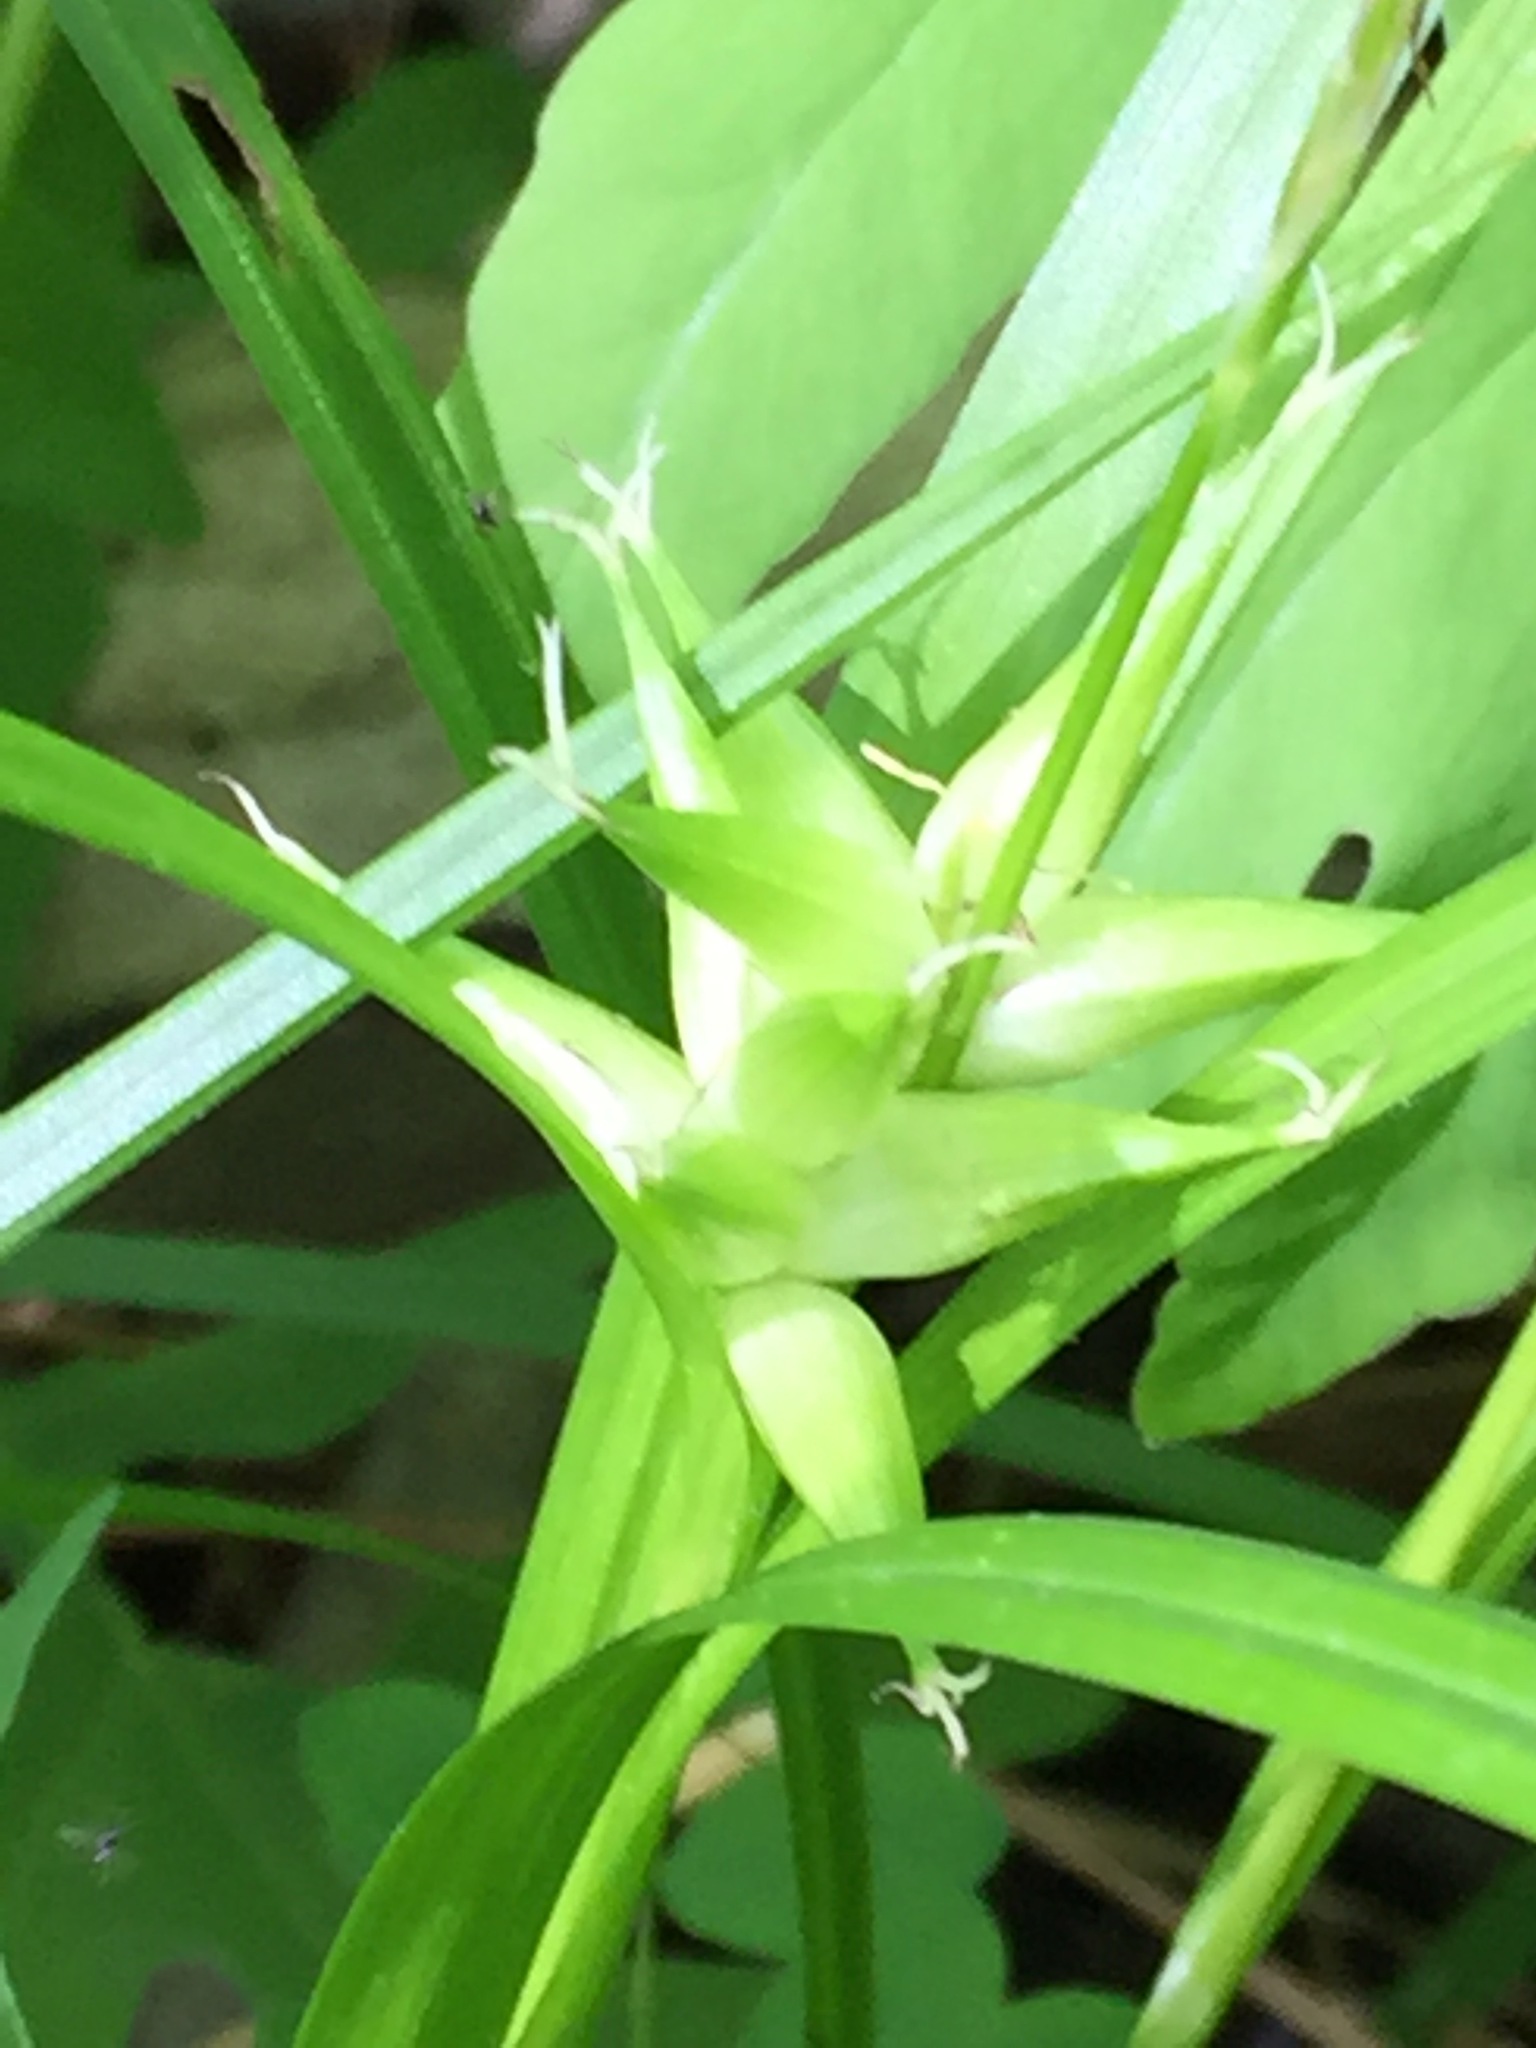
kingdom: Plantae
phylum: Tracheophyta
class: Liliopsida
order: Poales
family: Cyperaceae
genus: Carex
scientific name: Carex intumescens
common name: Greater bladder sedge
